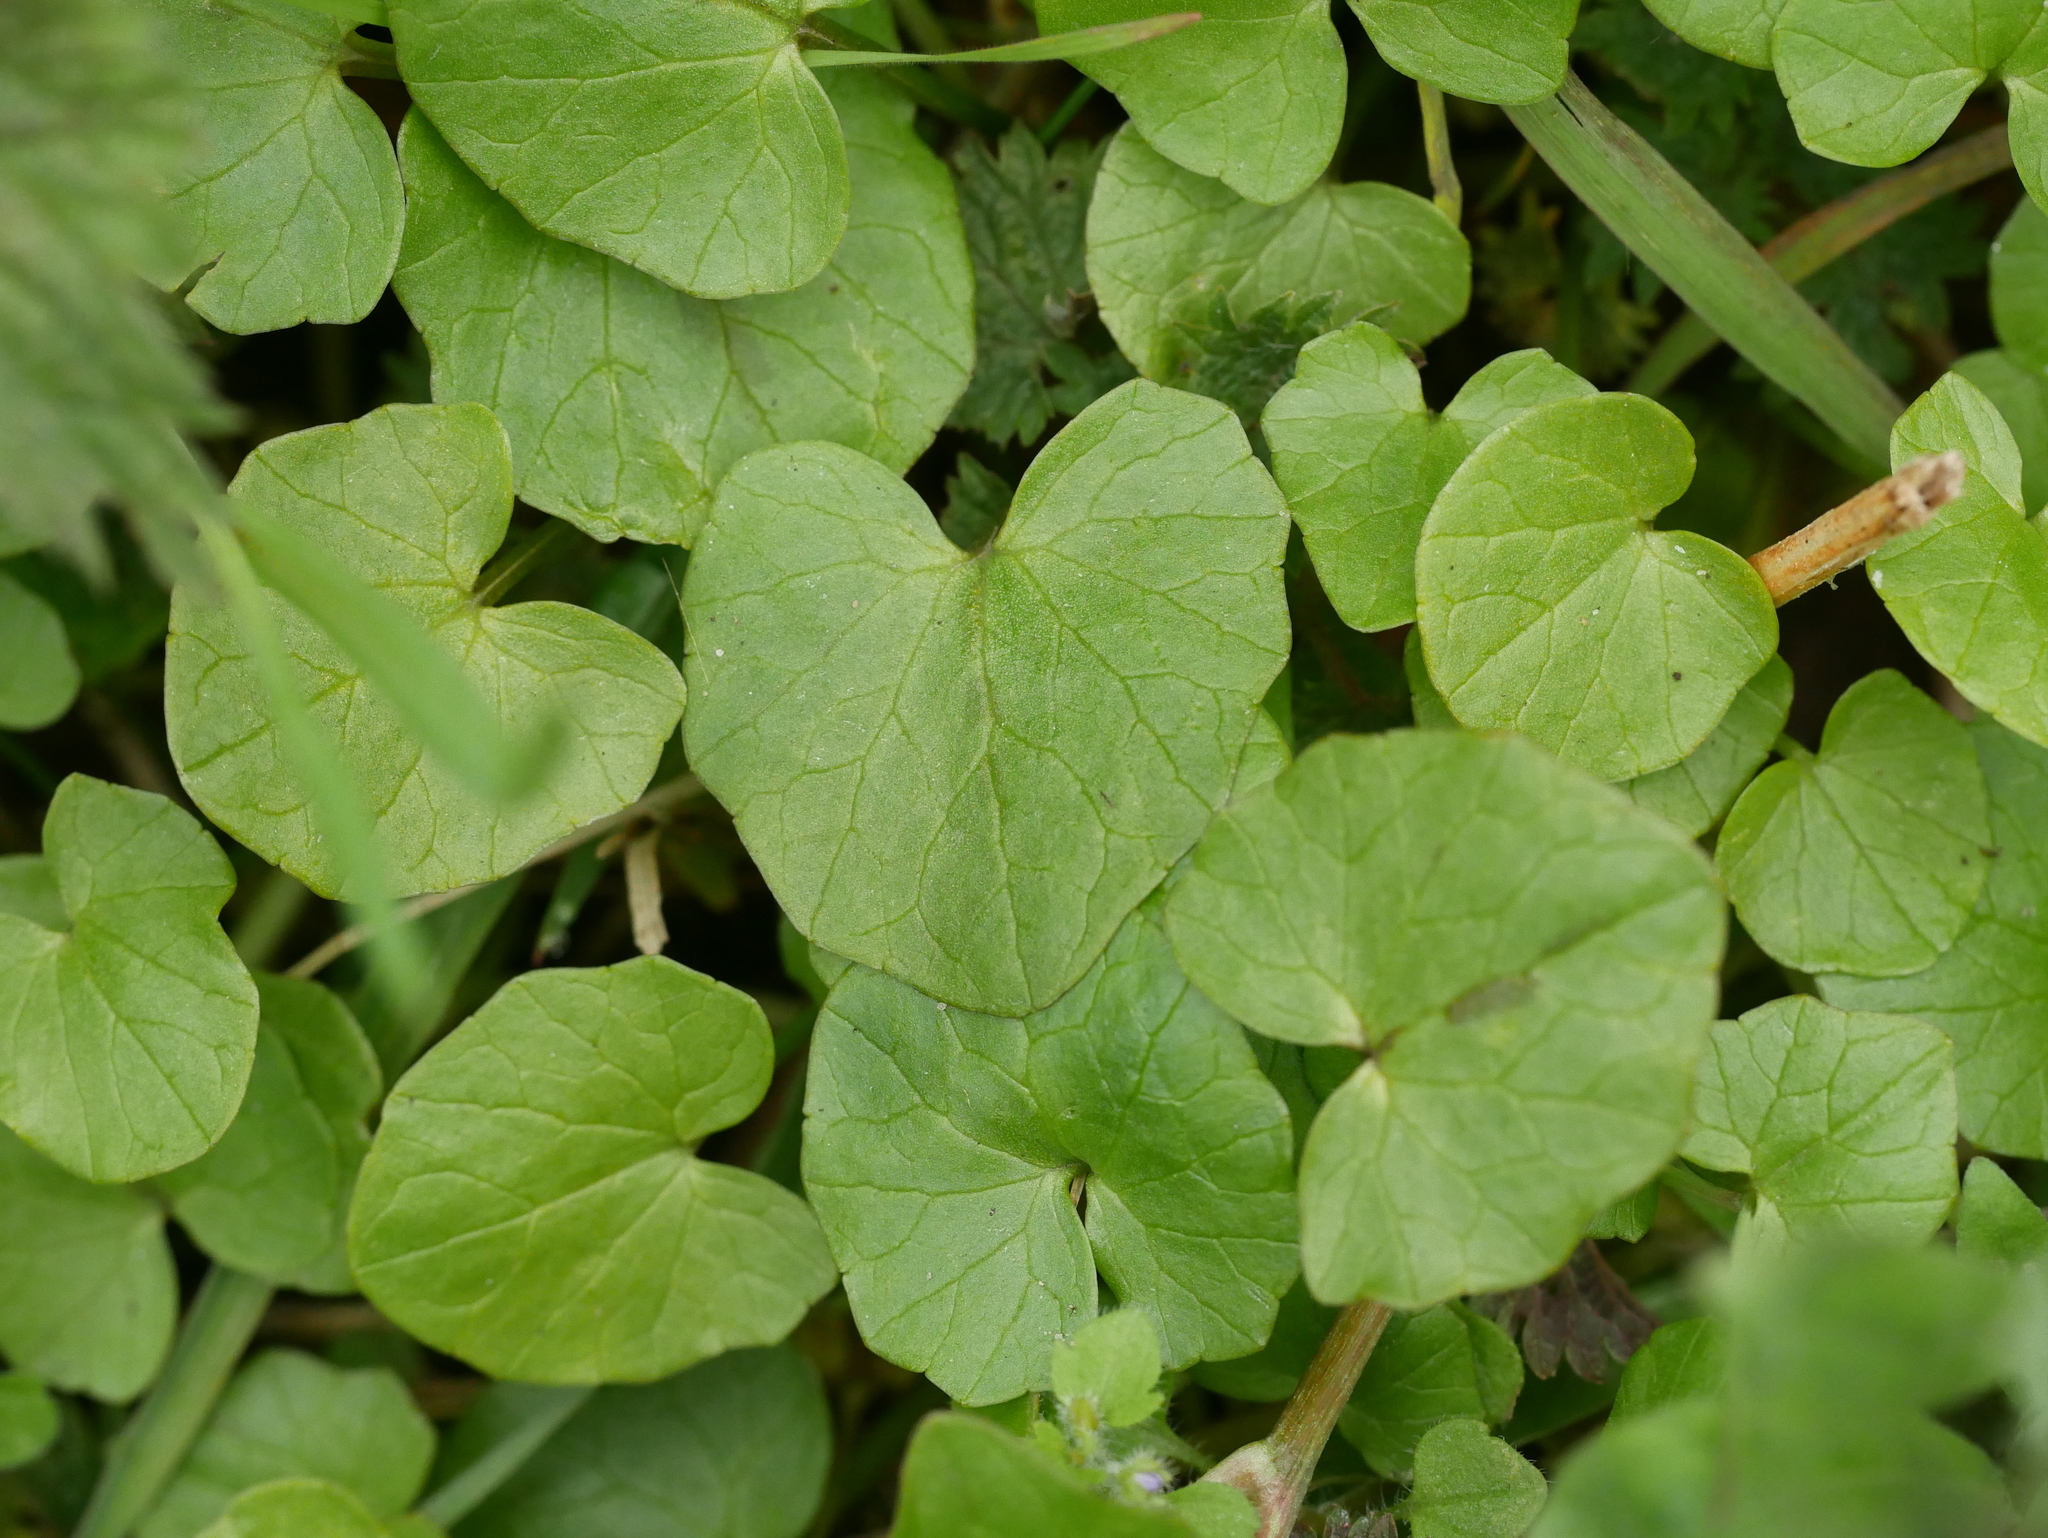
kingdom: Plantae
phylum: Tracheophyta
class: Magnoliopsida
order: Ranunculales
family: Ranunculaceae
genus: Ficaria
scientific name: Ficaria verna
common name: Lesser celandine
